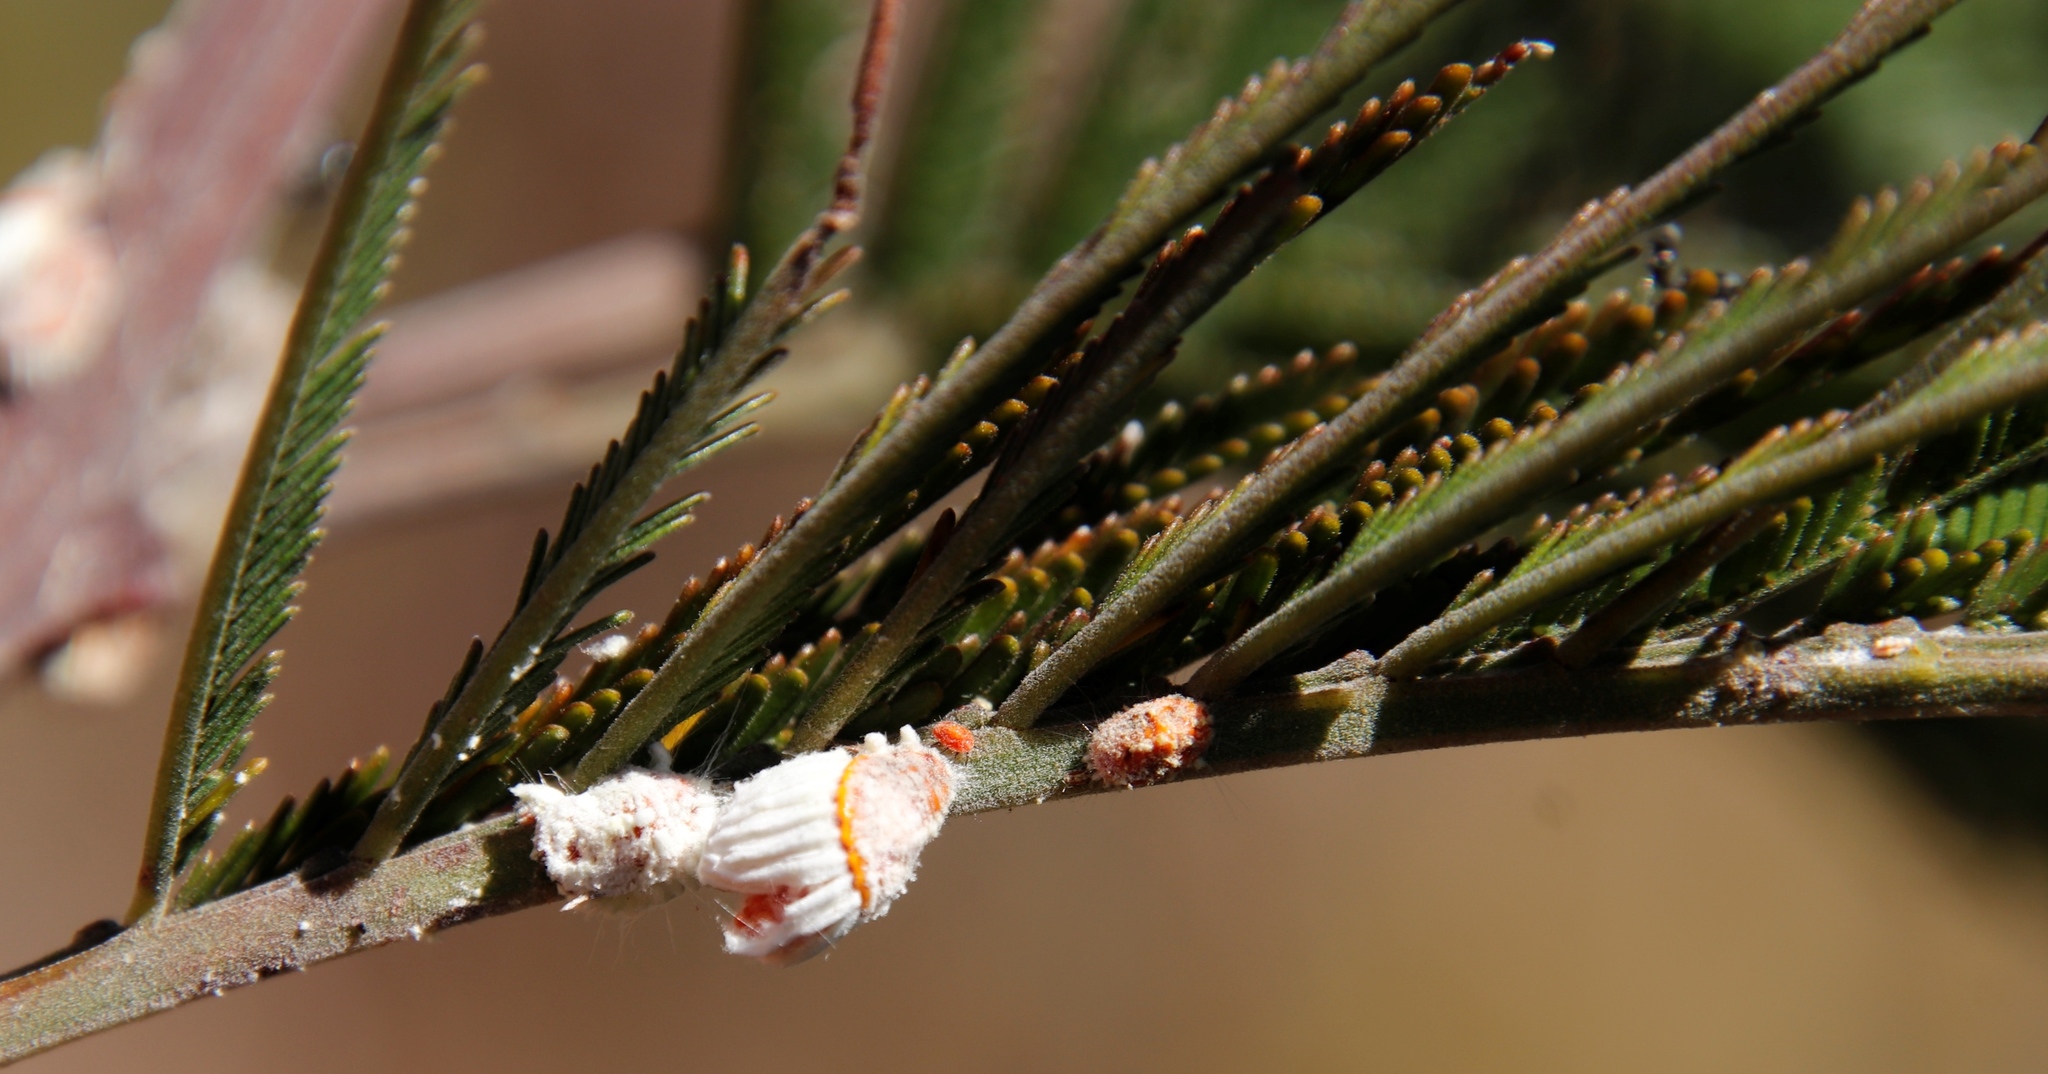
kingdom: Animalia
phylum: Arthropoda
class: Insecta
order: Hemiptera
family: Margarodidae
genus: Icerya
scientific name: Icerya purchasi
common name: Cottony cushion scale
